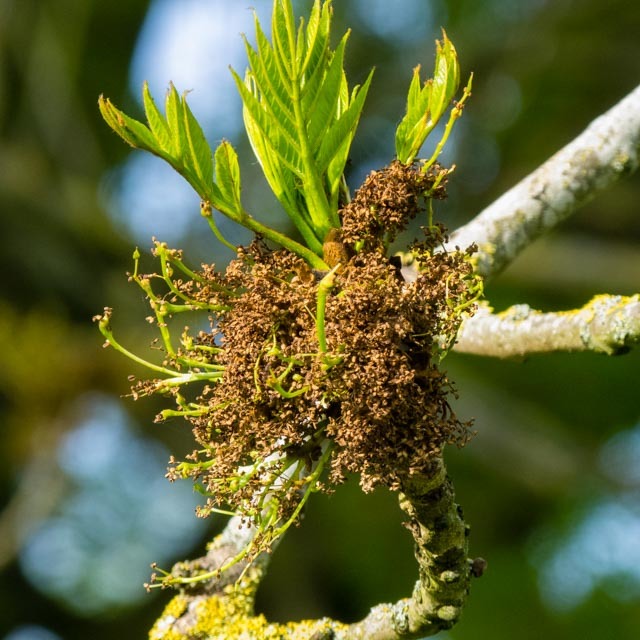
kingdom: Plantae
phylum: Tracheophyta
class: Magnoliopsida
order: Lamiales
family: Oleaceae
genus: Fraxinus
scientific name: Fraxinus excelsior
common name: European ash
